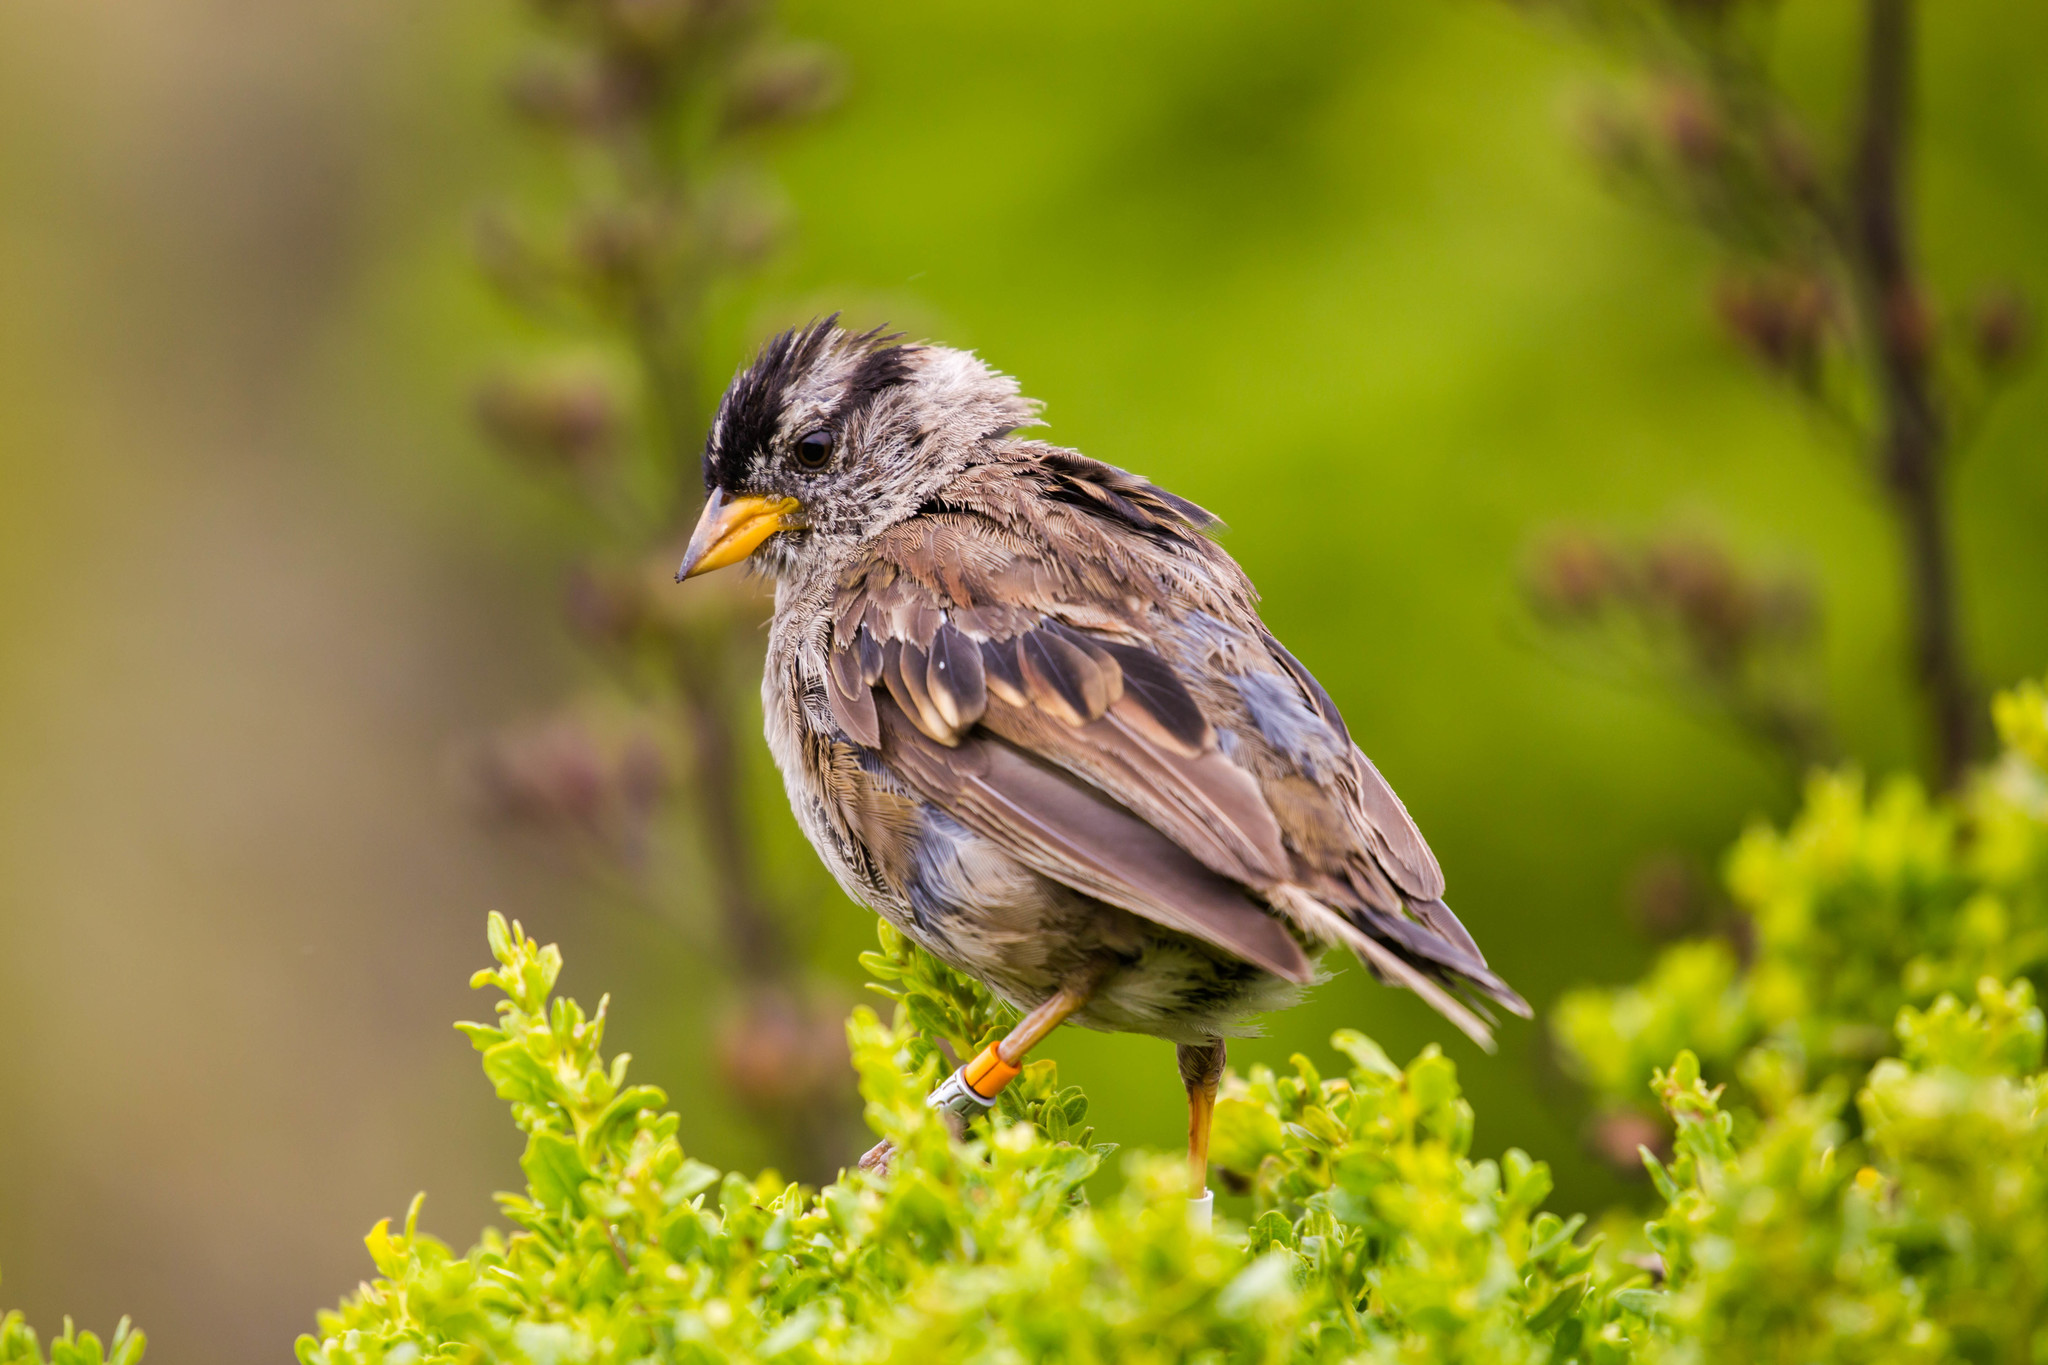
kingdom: Animalia
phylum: Chordata
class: Aves
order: Passeriformes
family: Passerellidae
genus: Zonotrichia
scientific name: Zonotrichia leucophrys
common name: White-crowned sparrow
